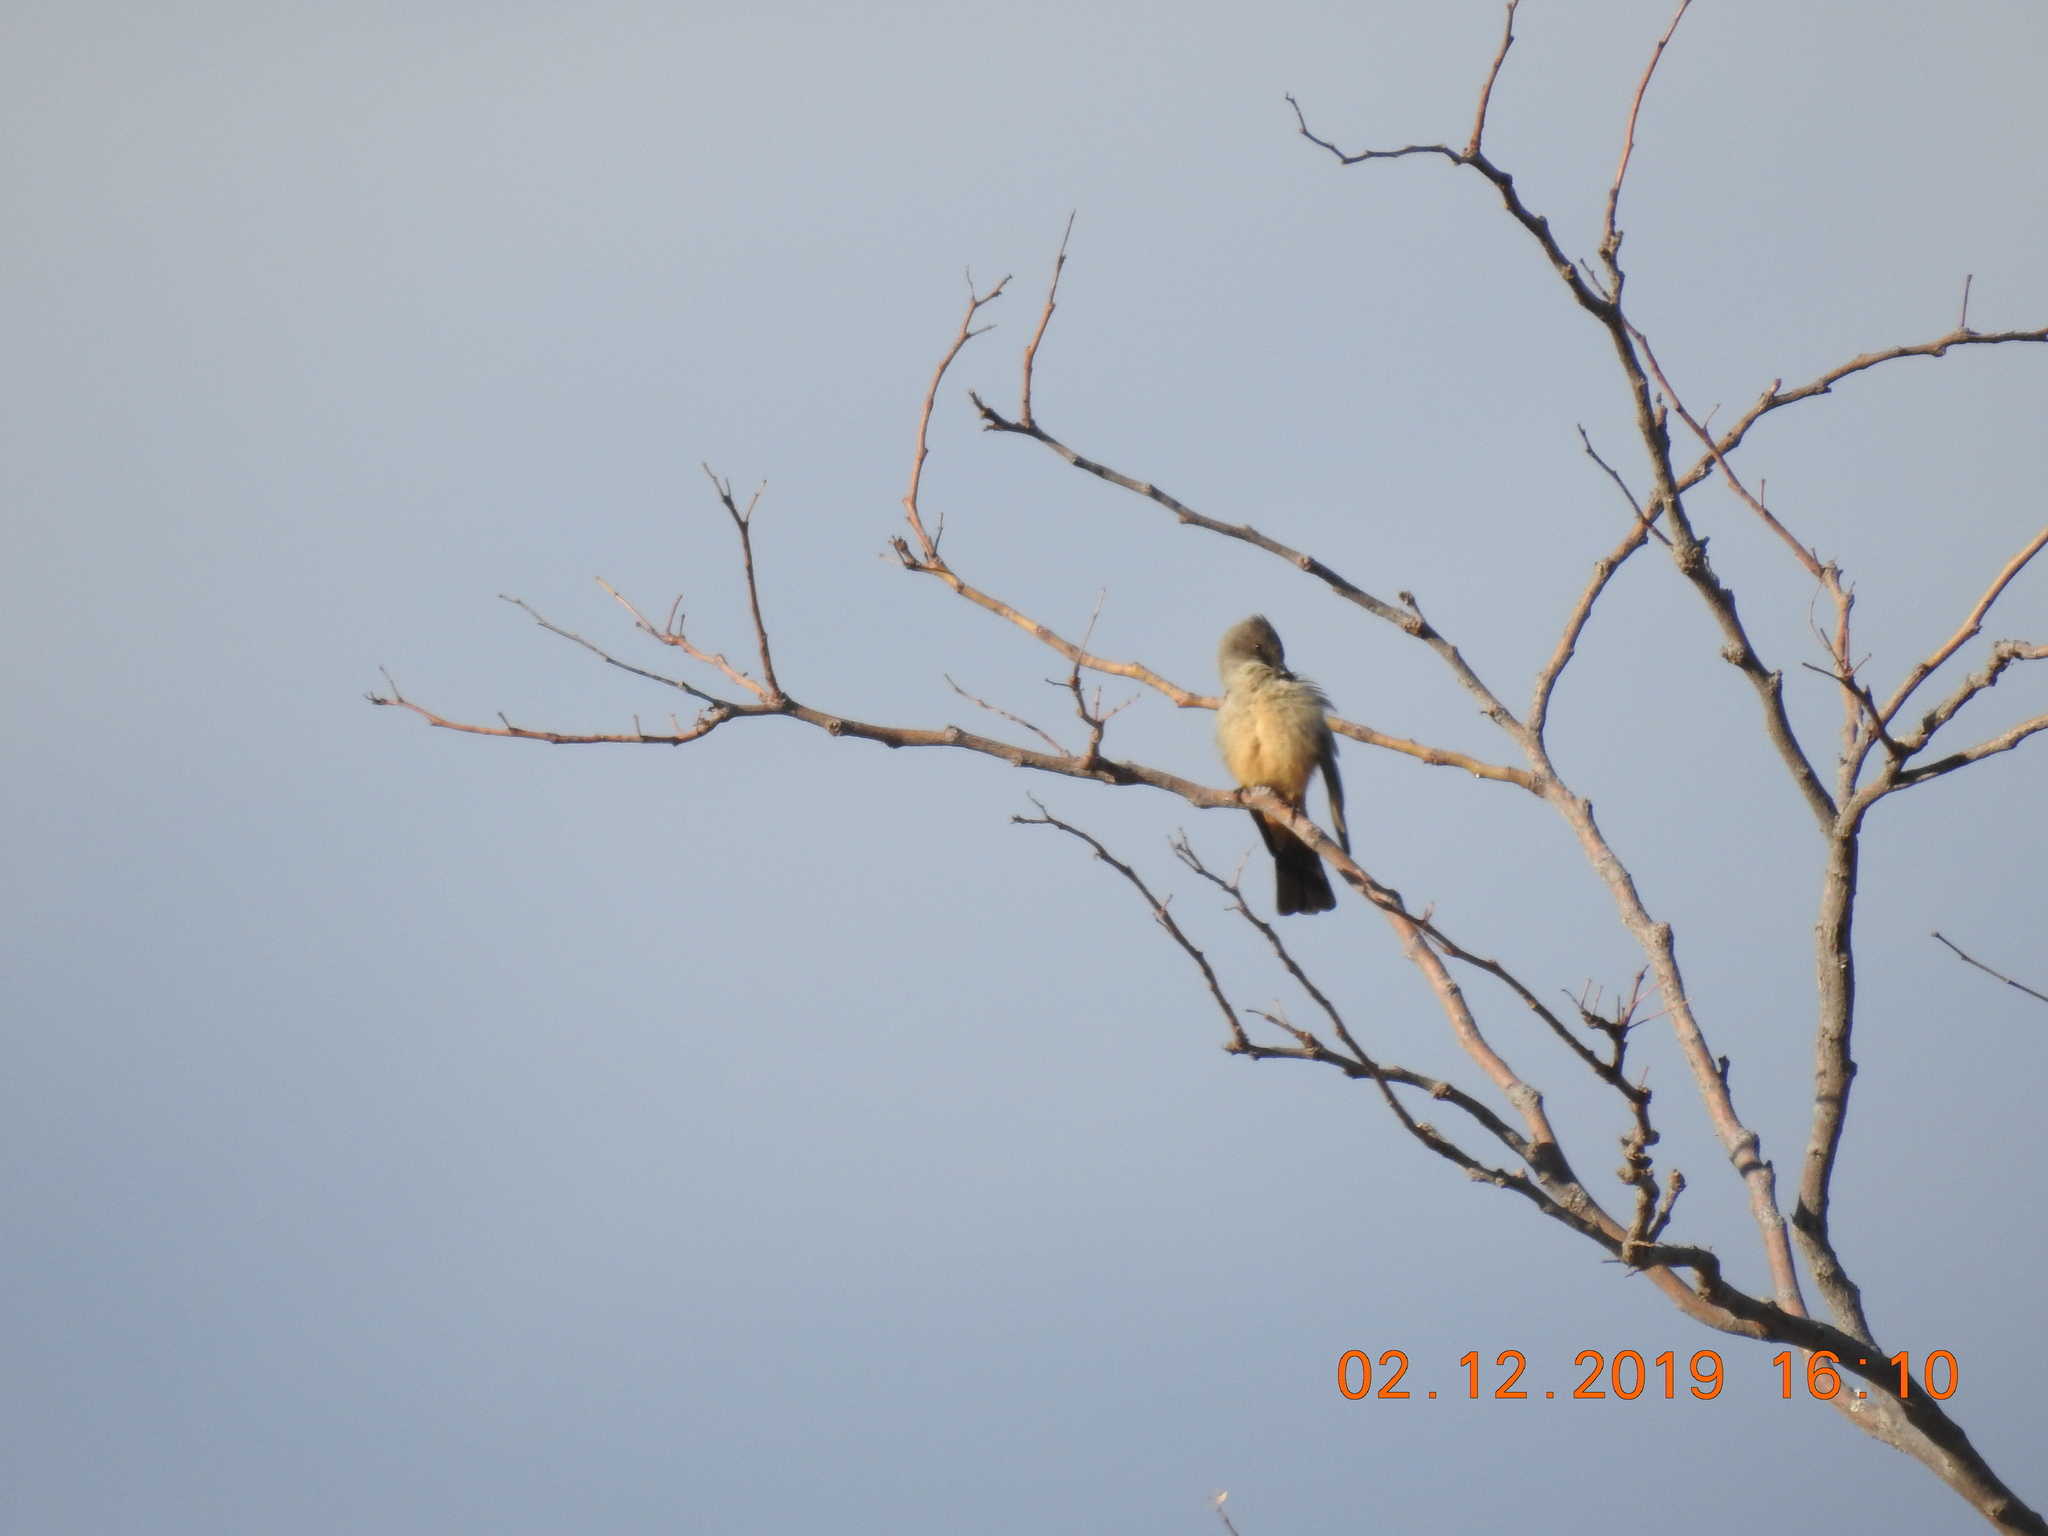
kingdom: Animalia
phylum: Chordata
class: Aves
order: Passeriformes
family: Tyrannidae
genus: Sayornis
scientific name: Sayornis saya
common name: Say's phoebe
